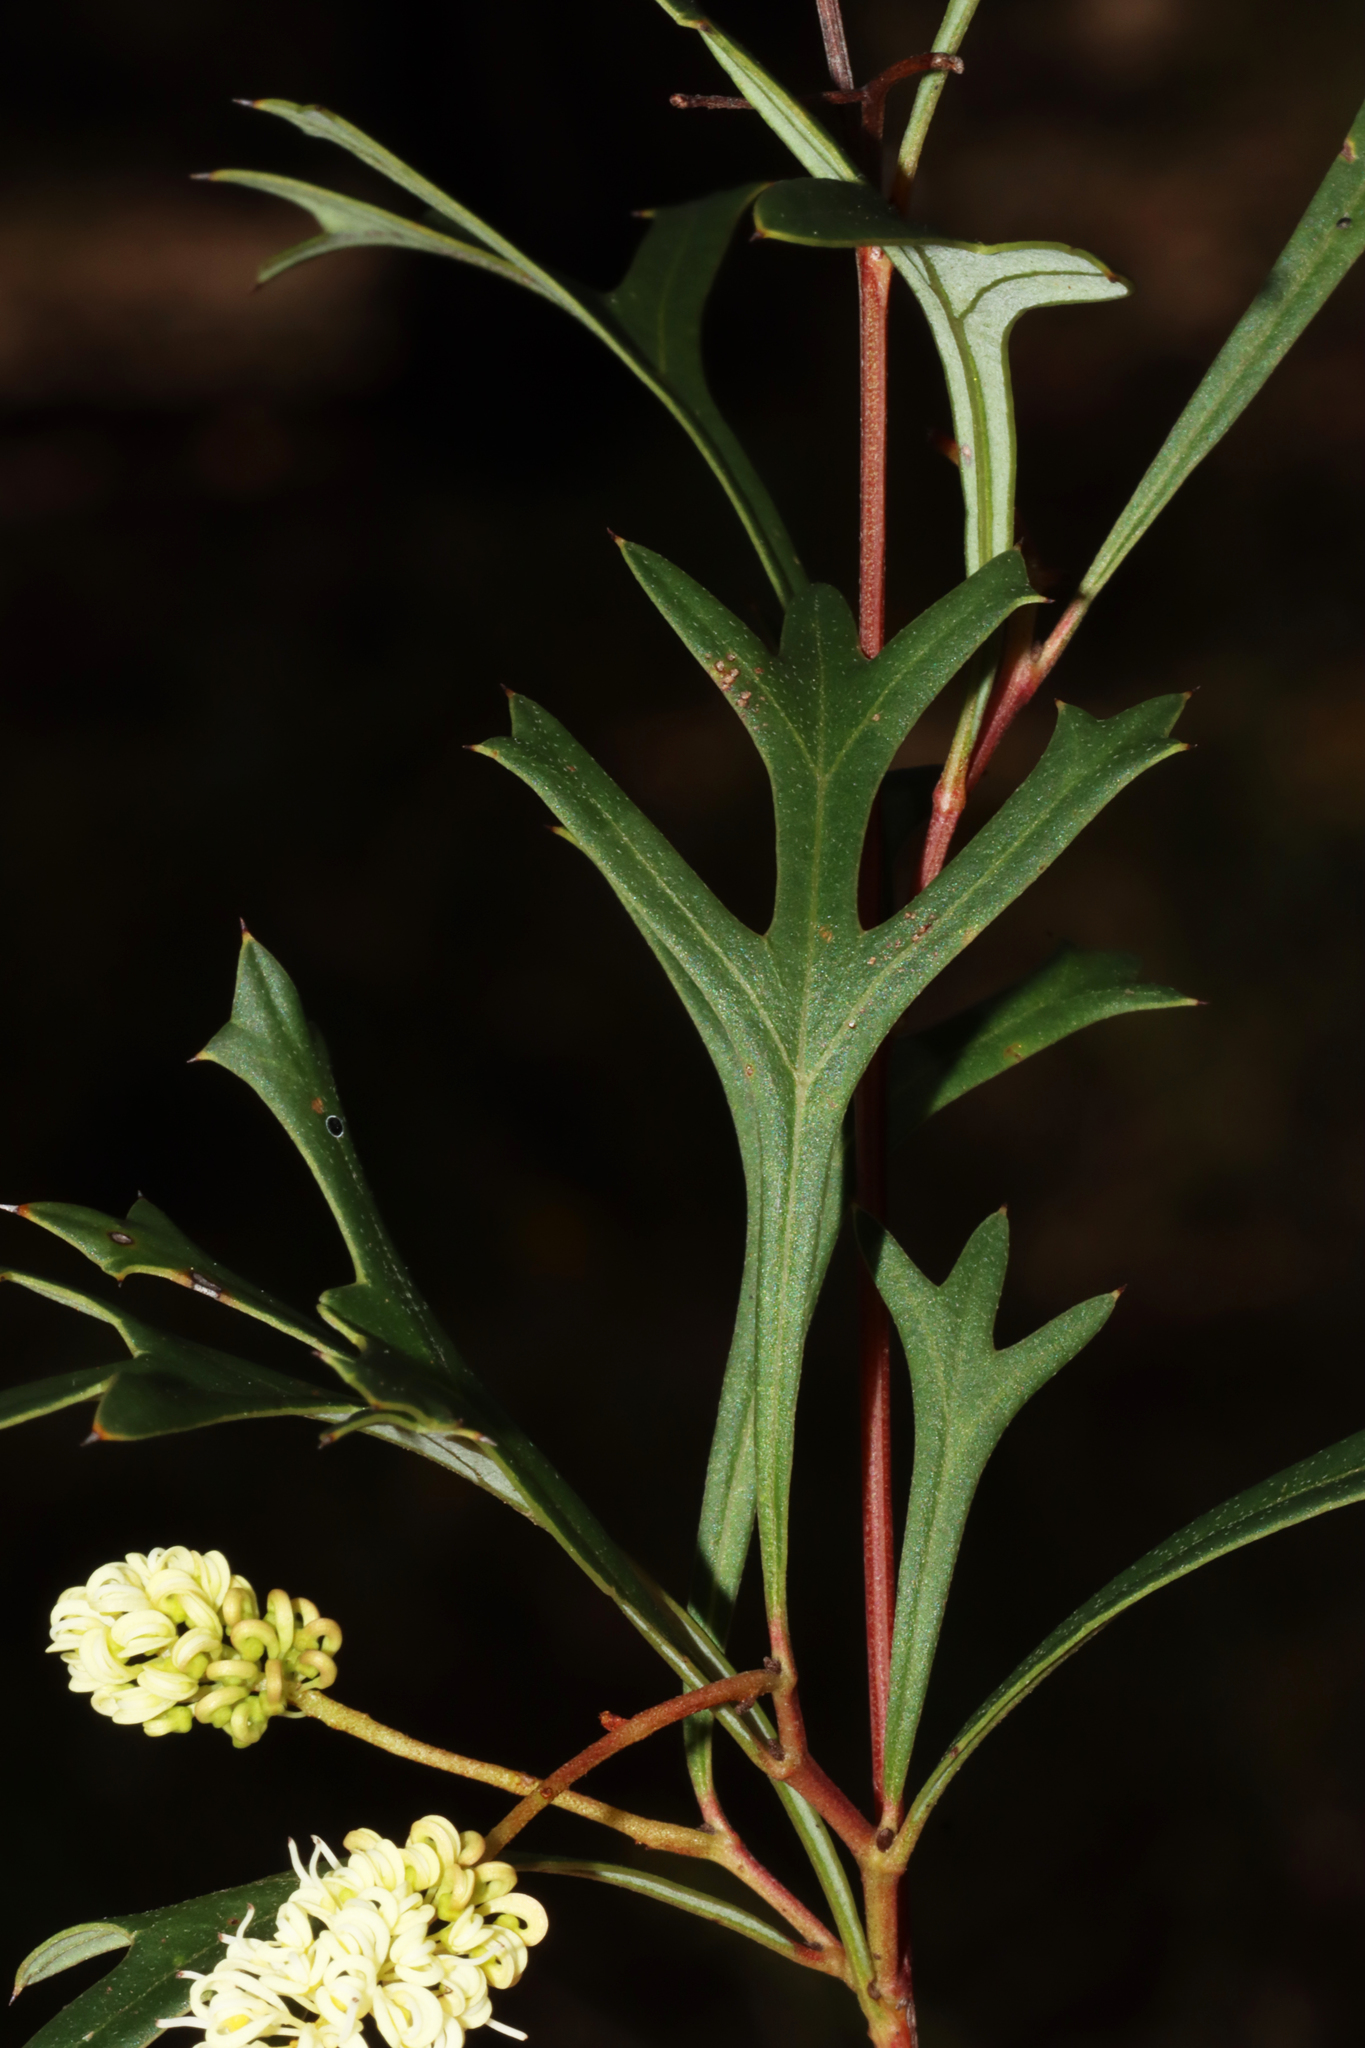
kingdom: Plantae
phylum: Tracheophyta
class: Magnoliopsida
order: Proteales
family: Proteaceae
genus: Grevillea
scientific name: Grevillea synaphea
